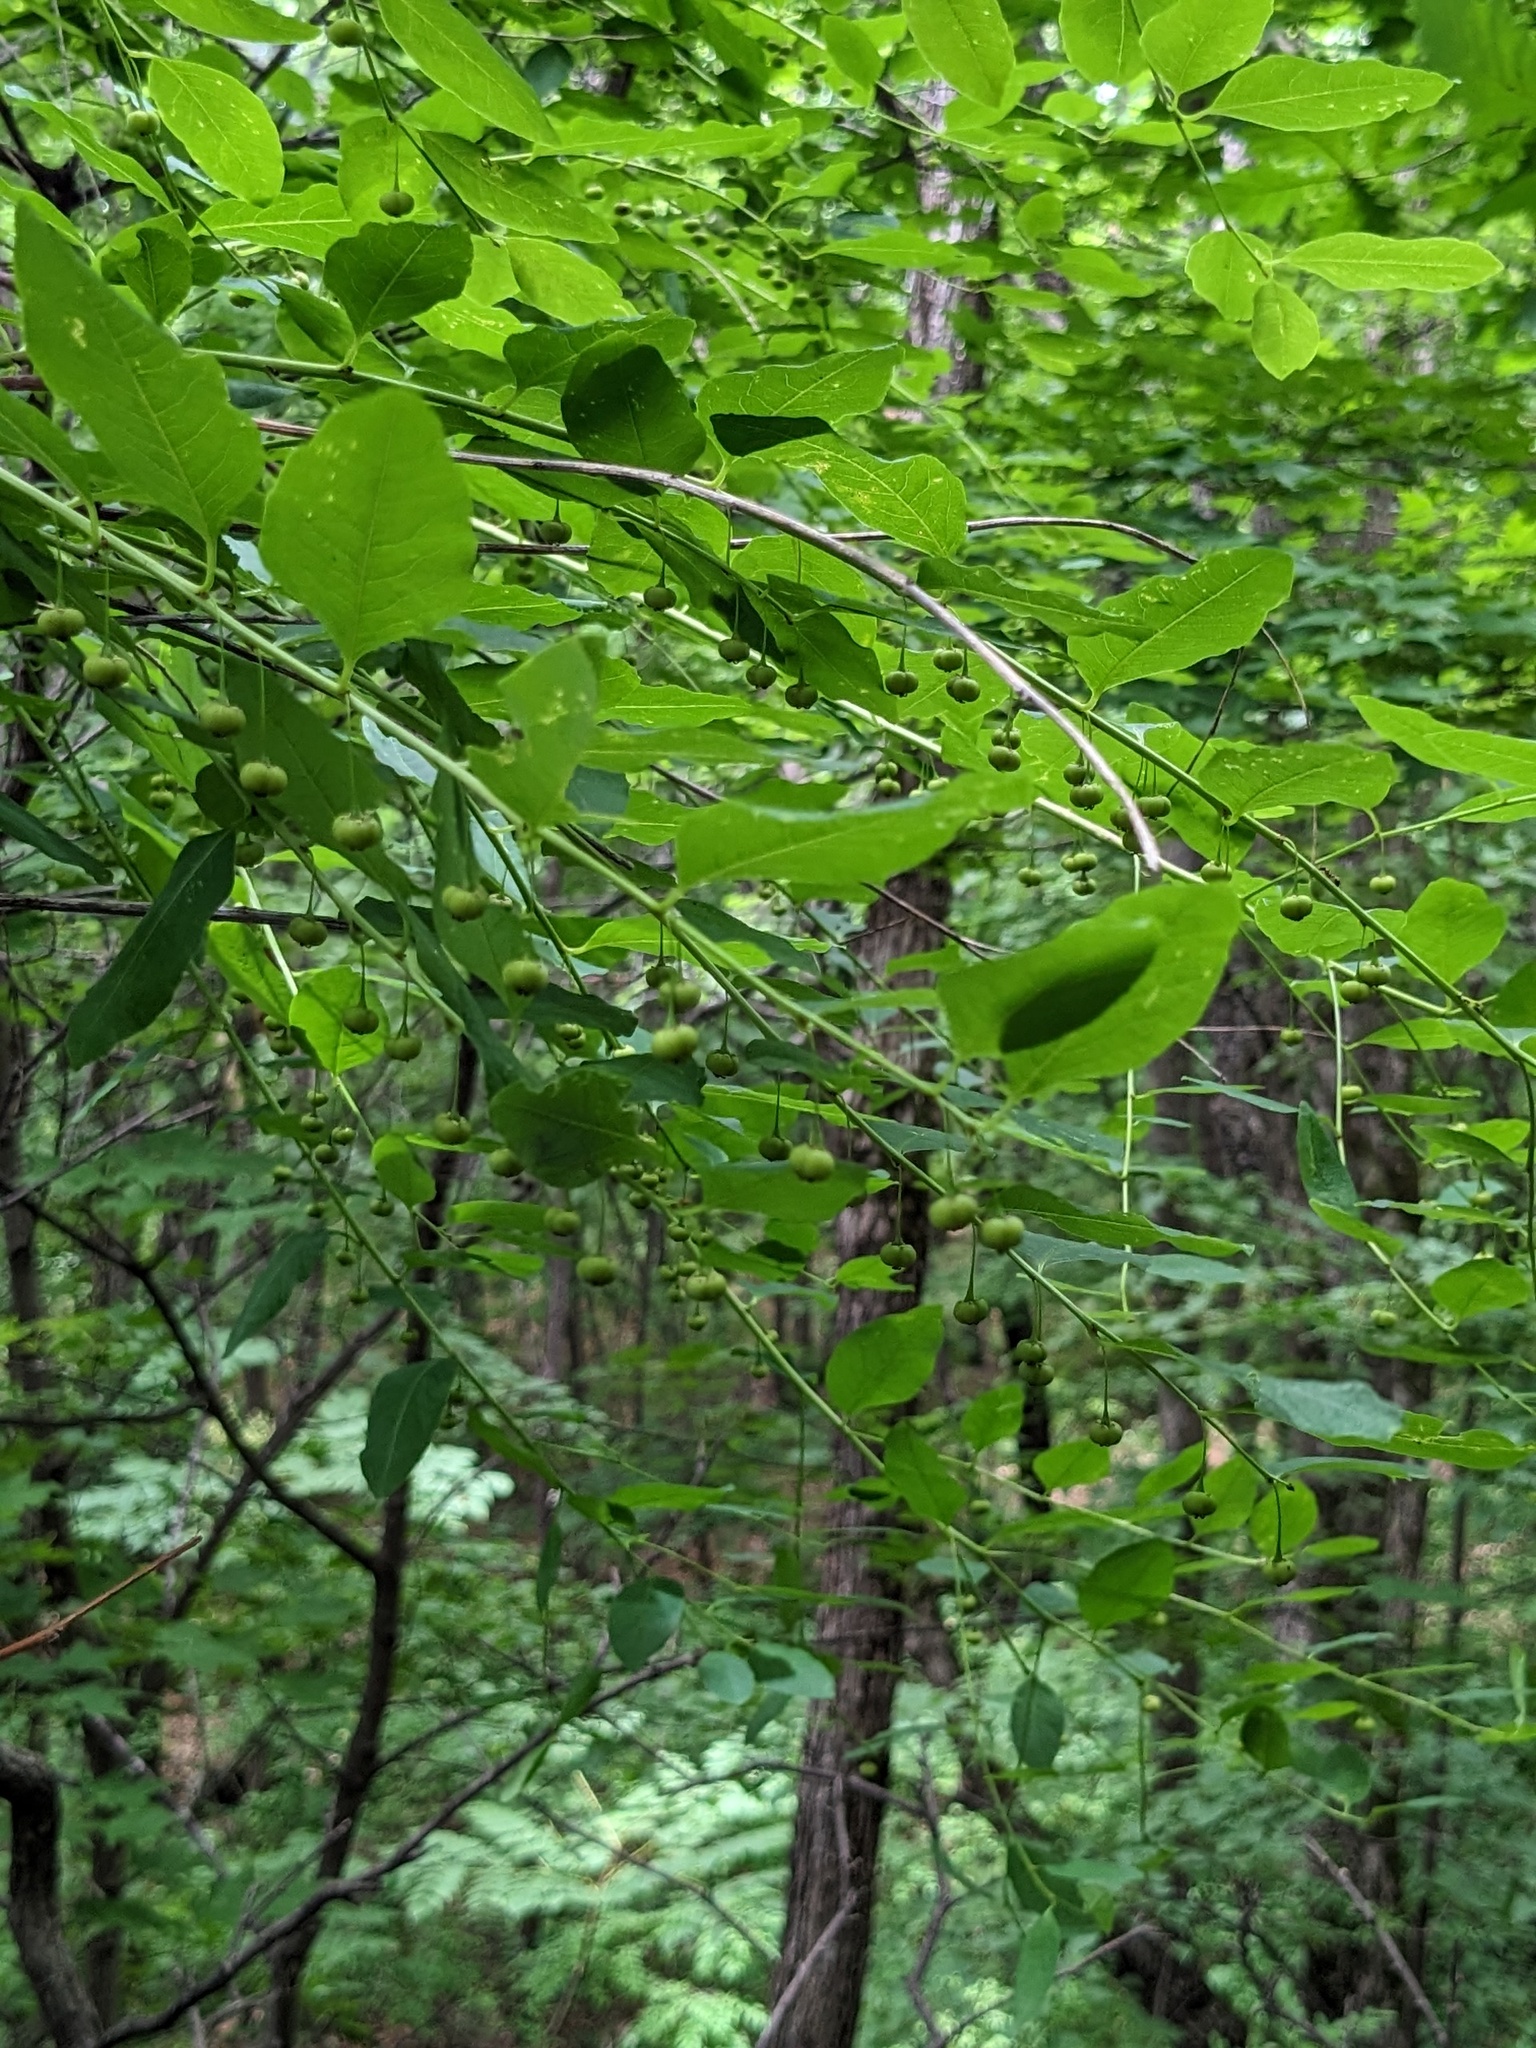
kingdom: Plantae
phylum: Tracheophyta
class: Magnoliopsida
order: Malpighiales
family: Phyllanthaceae
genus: Flueggea
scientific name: Flueggea suffruticosa
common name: Arching bushweed
